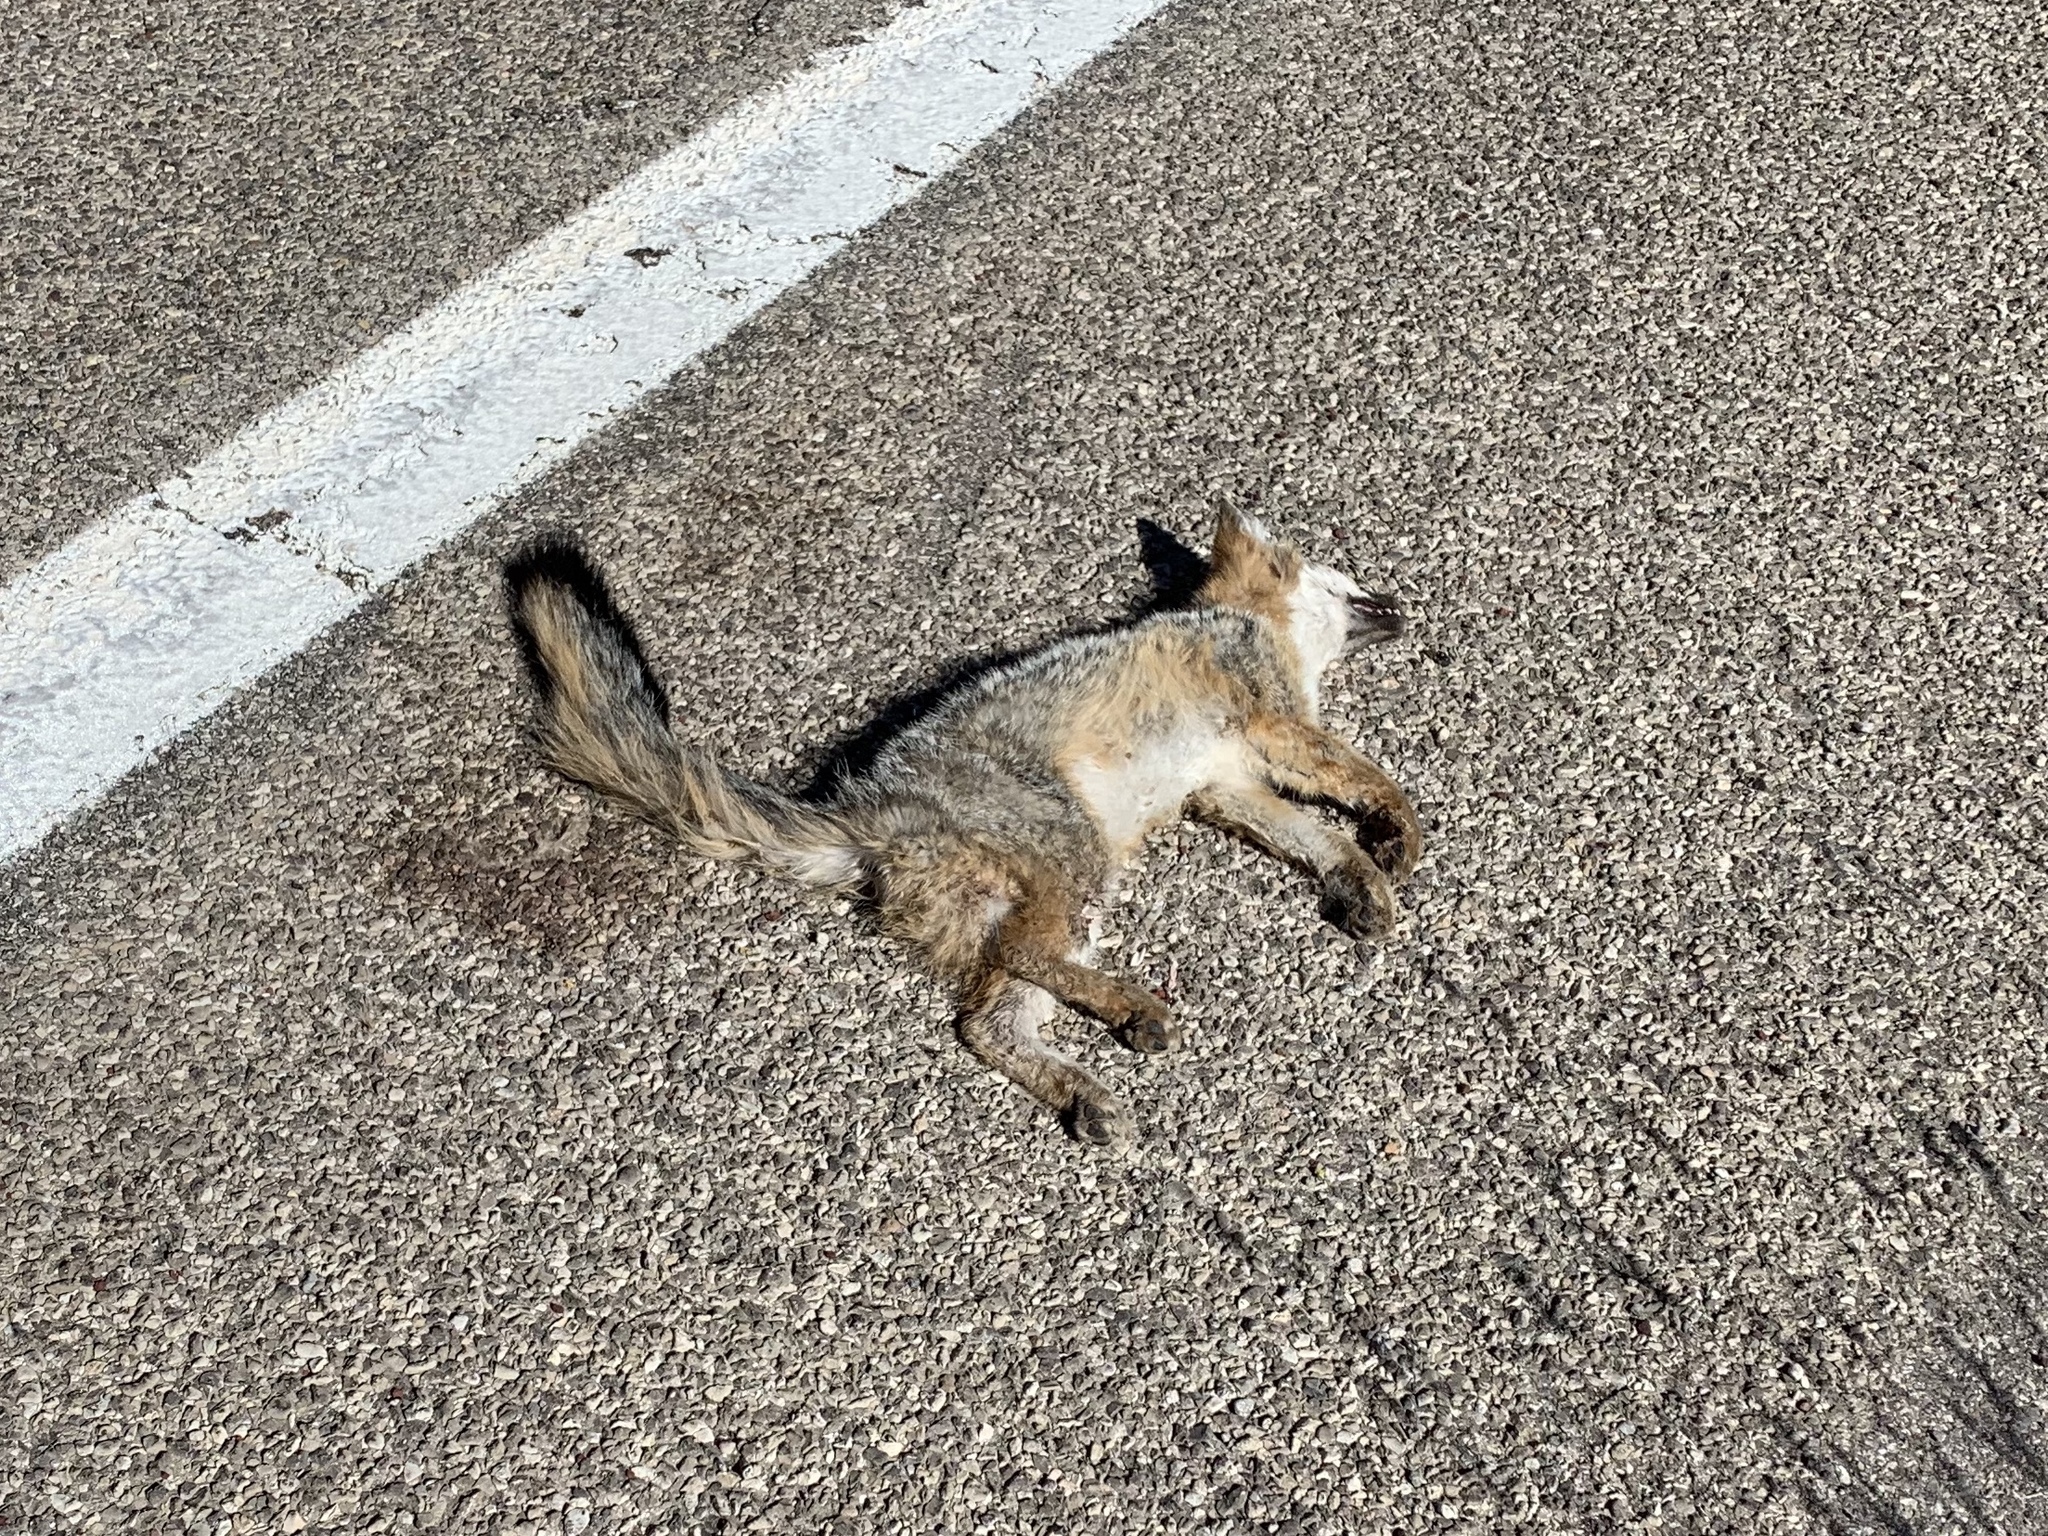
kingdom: Animalia
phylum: Chordata
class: Mammalia
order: Carnivora
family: Canidae
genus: Urocyon
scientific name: Urocyon cinereoargenteus
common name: Gray fox
